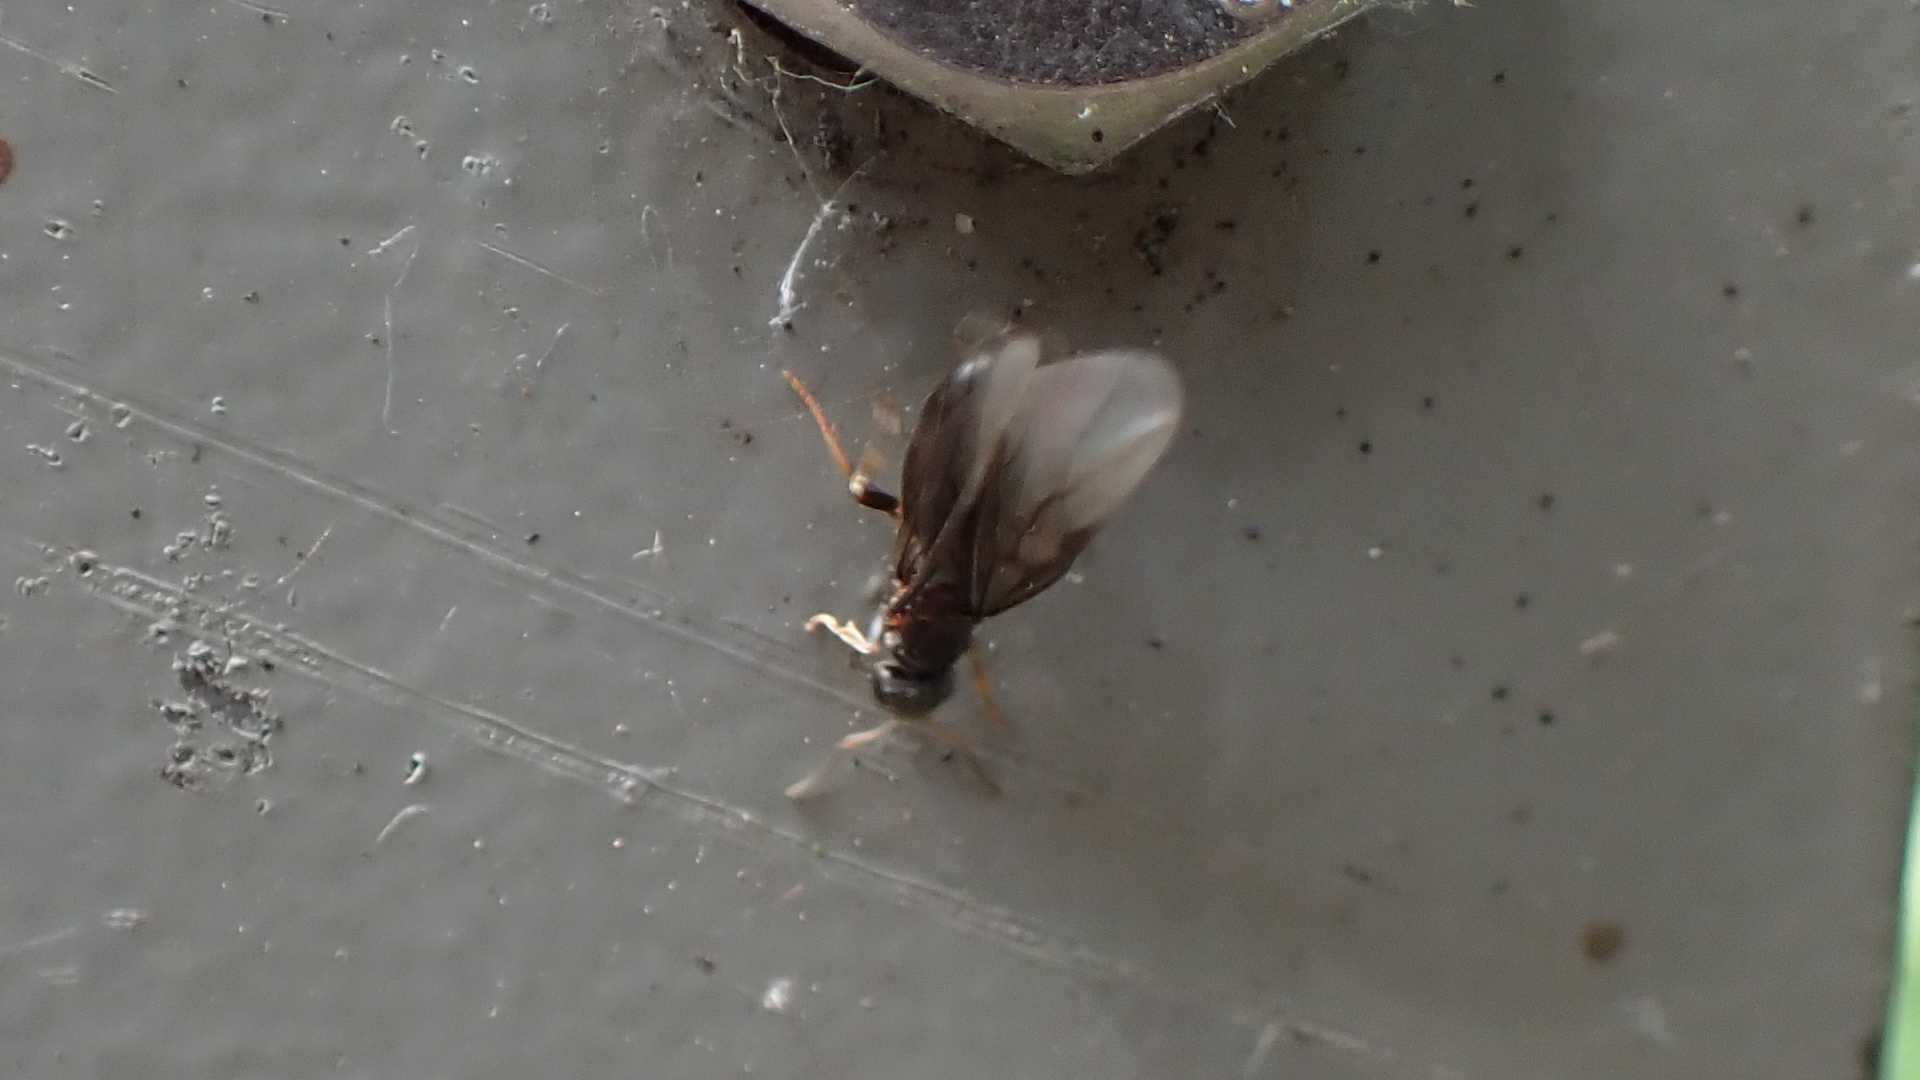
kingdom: Animalia
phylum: Arthropoda
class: Insecta
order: Hymenoptera
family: Formicidae
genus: Lasius
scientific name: Lasius
